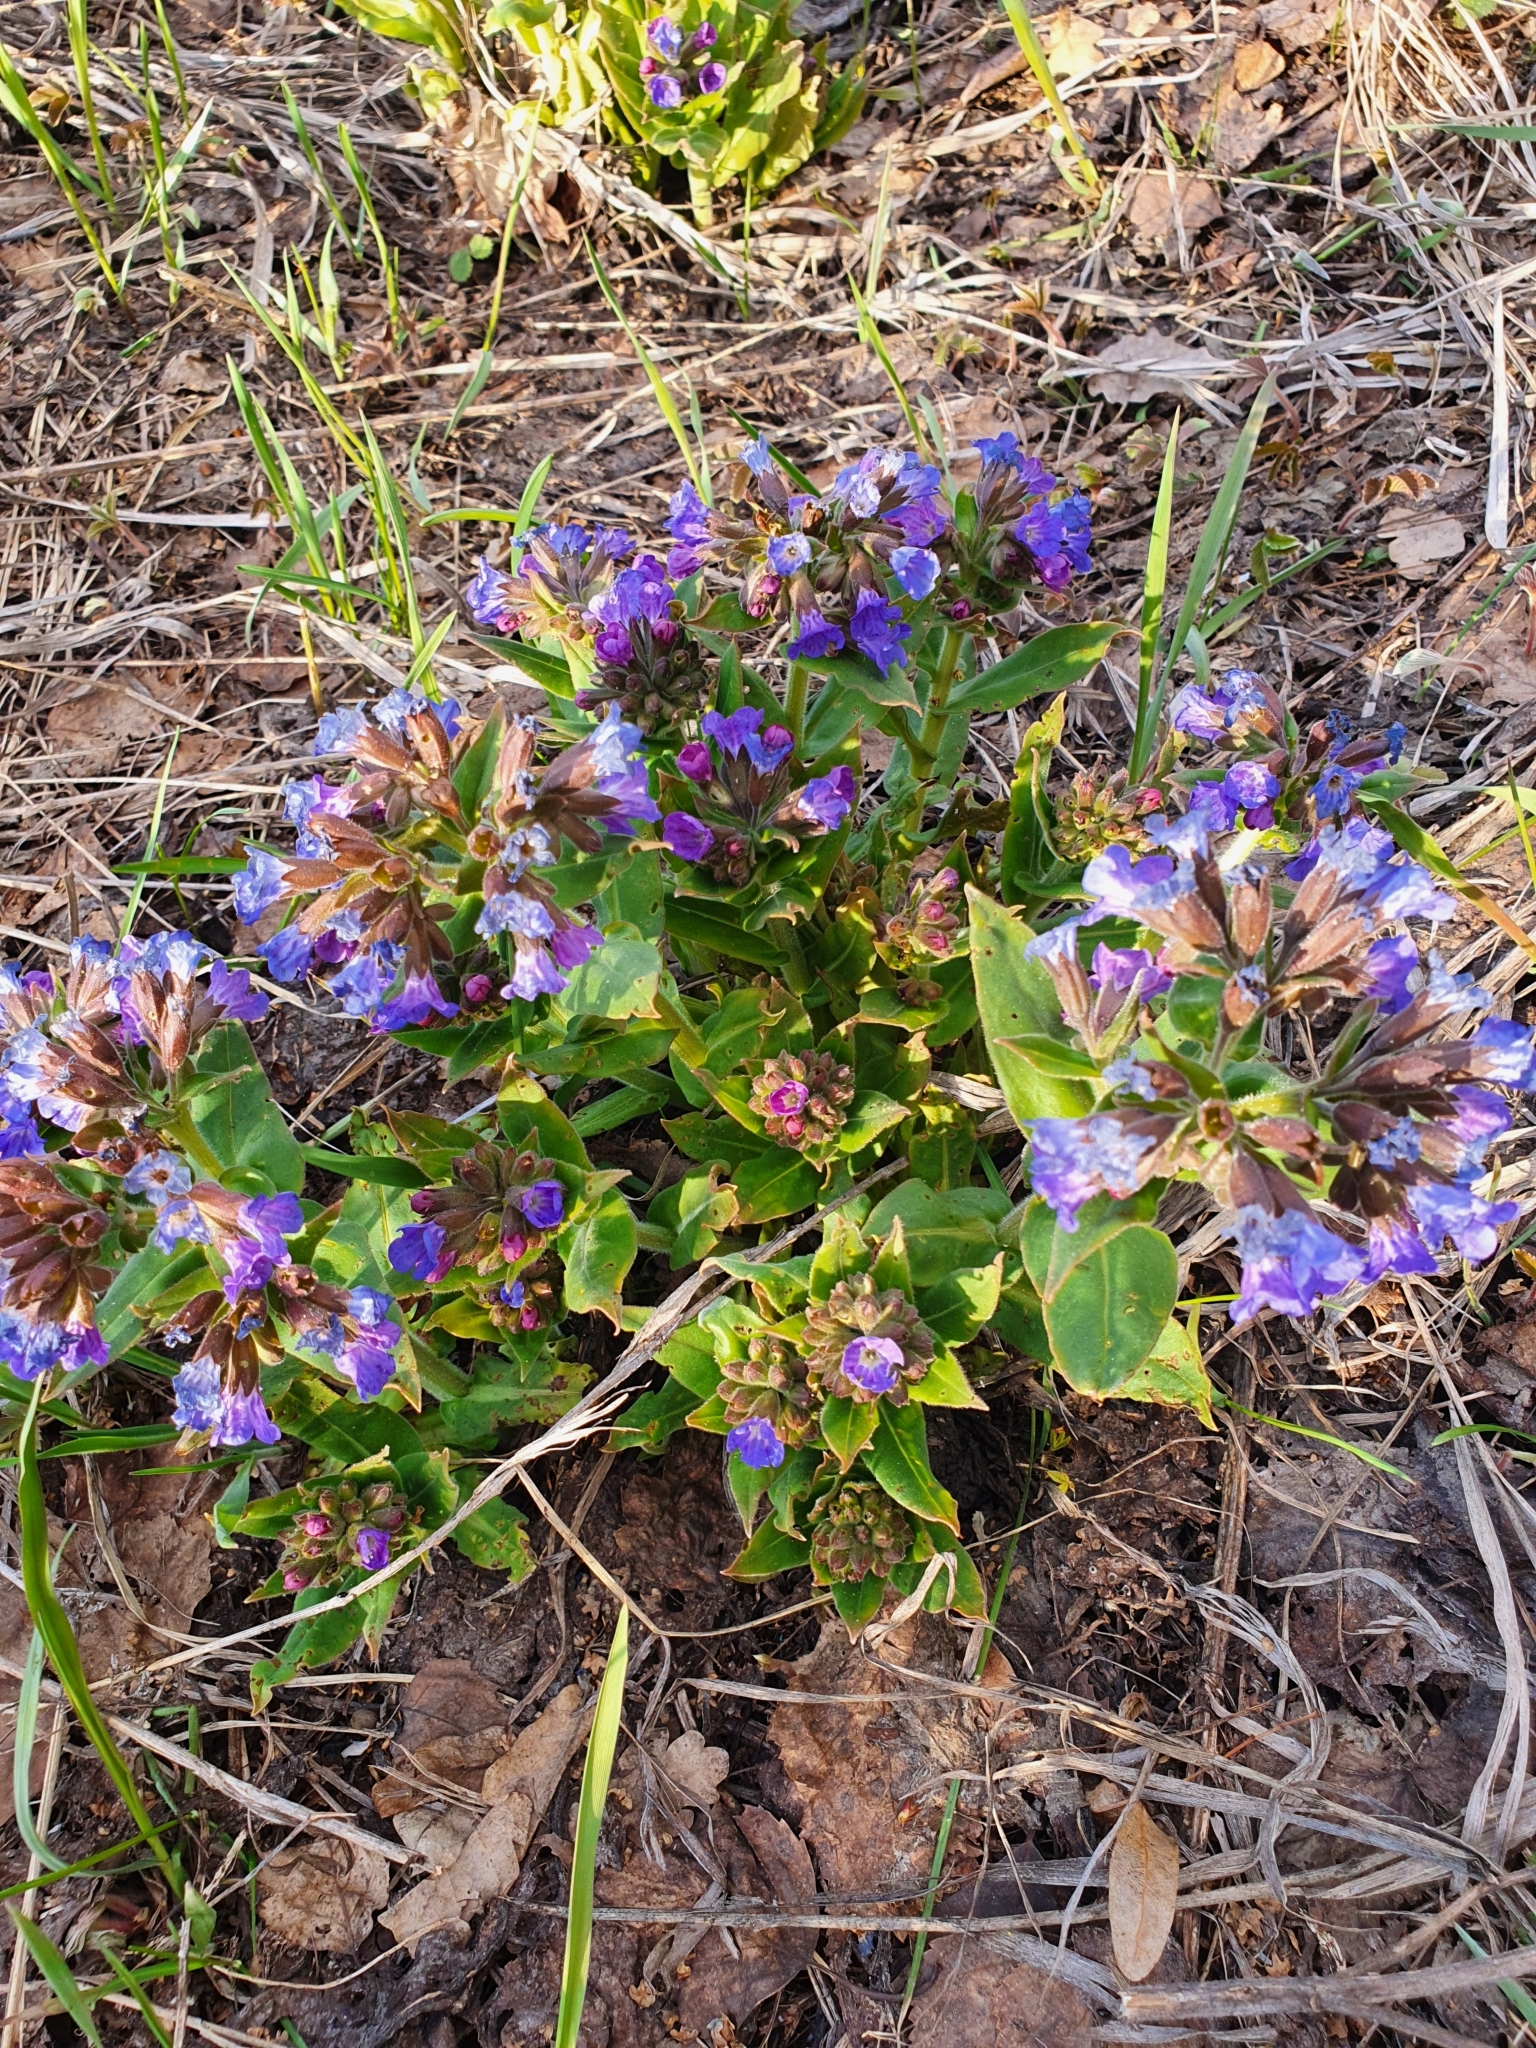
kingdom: Plantae
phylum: Tracheophyta
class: Magnoliopsida
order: Boraginales
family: Boraginaceae
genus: Pulmonaria
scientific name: Pulmonaria mollis
